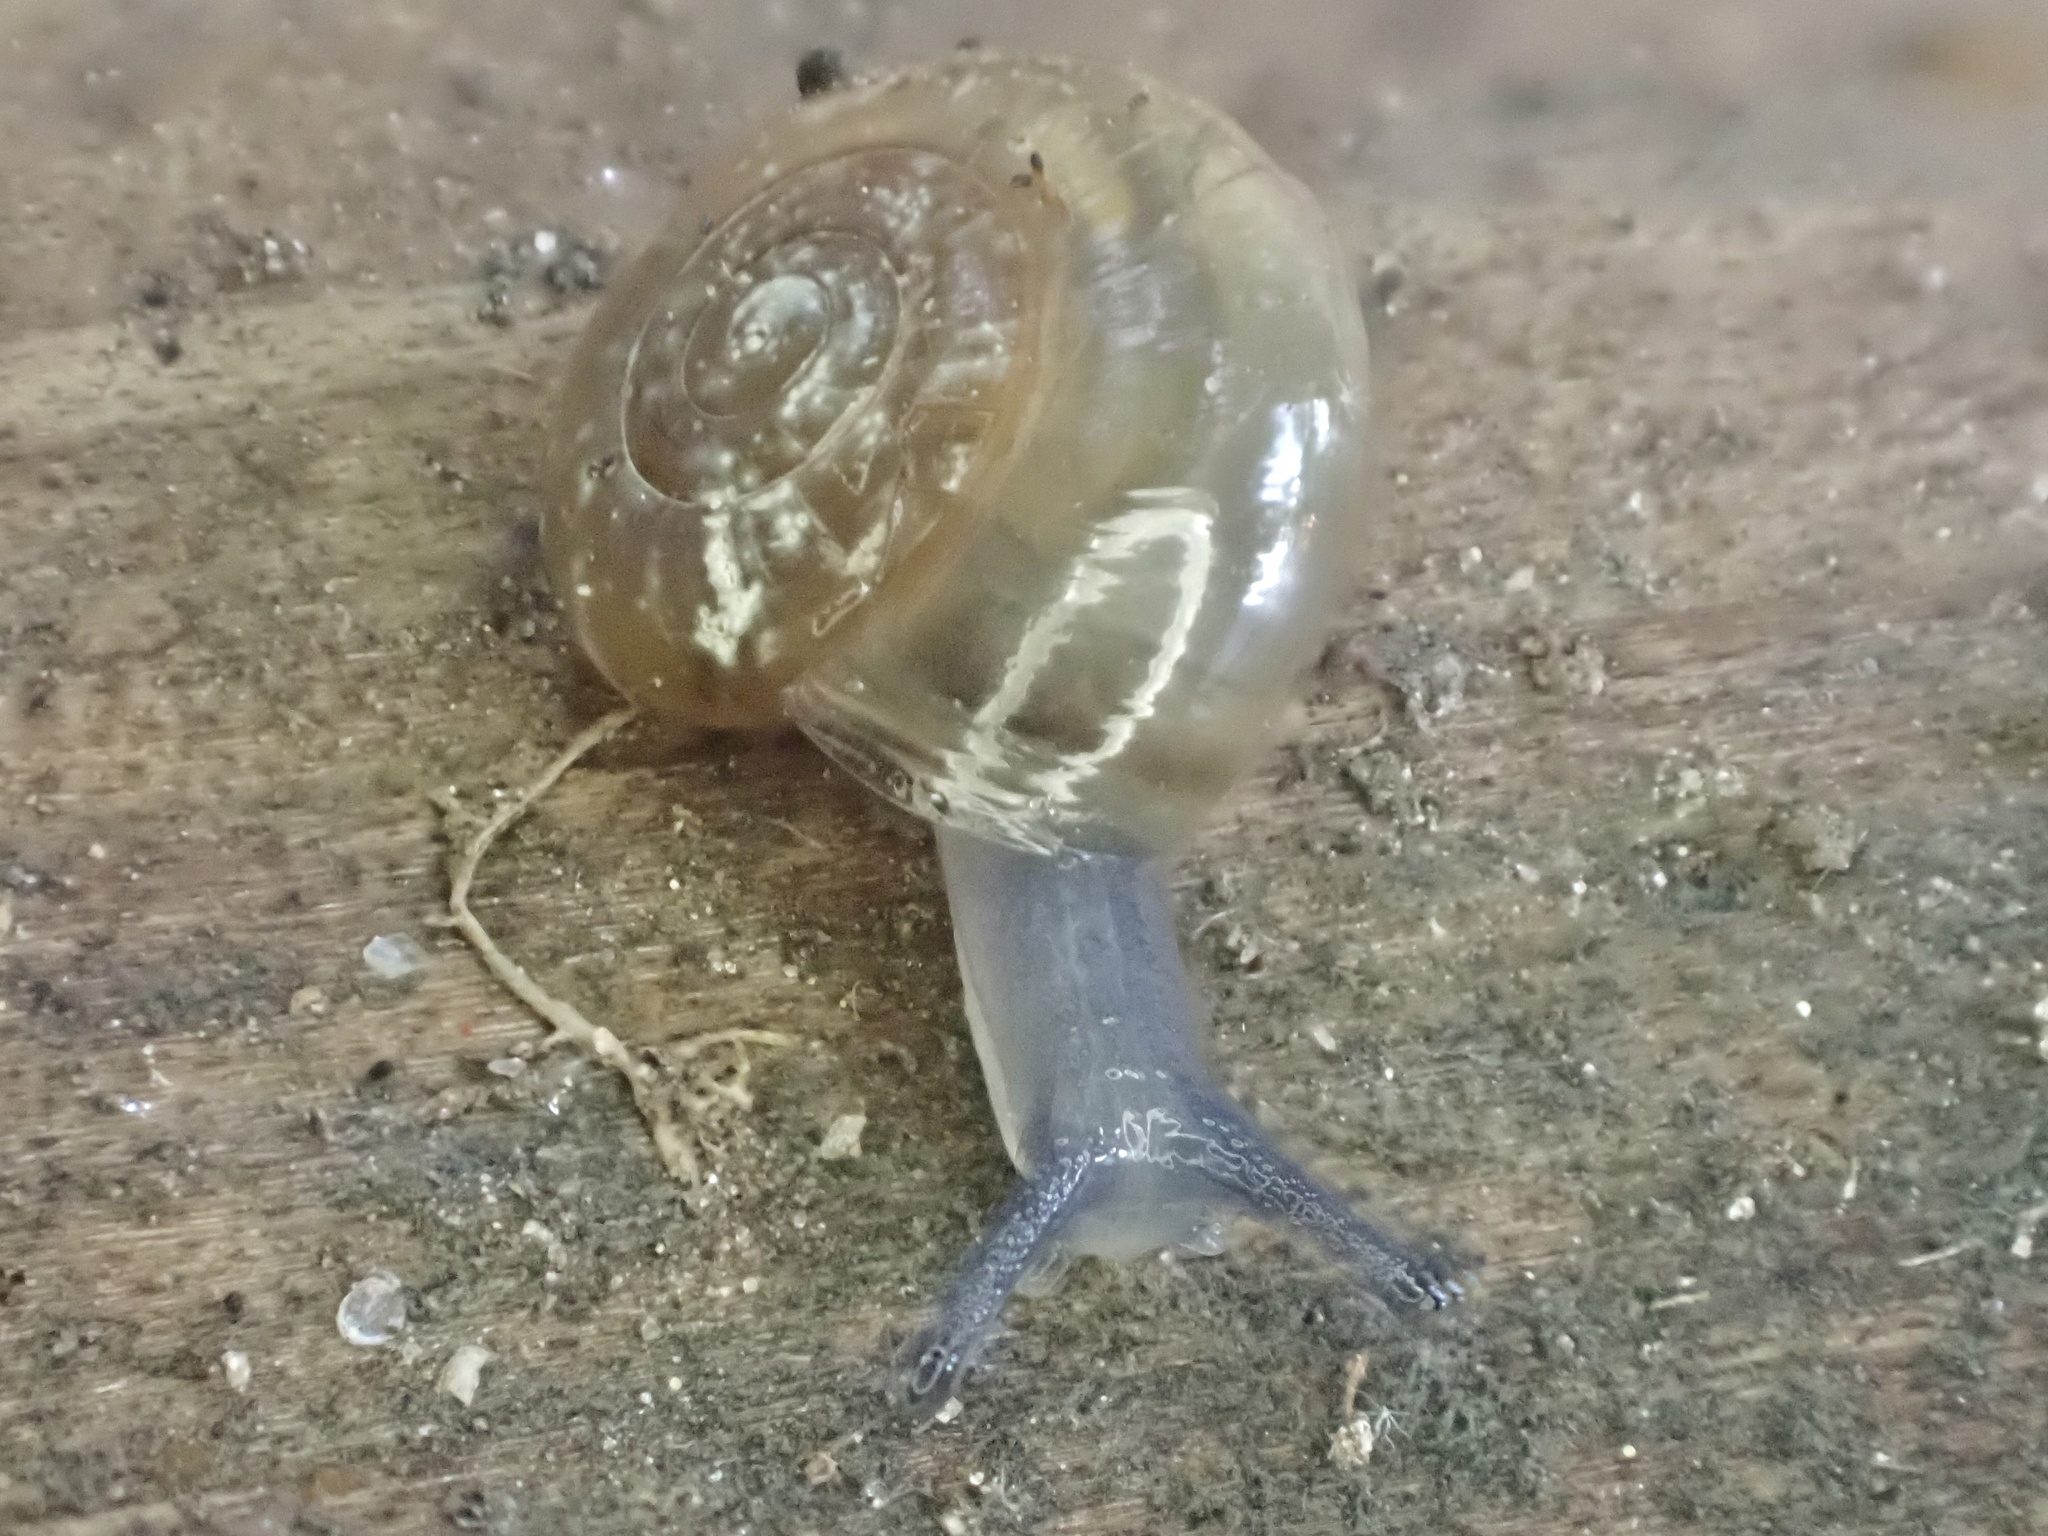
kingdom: Animalia
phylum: Mollusca
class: Gastropoda
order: Stylommatophora
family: Oxychilidae
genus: Oxychilus
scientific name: Oxychilus draparnaudi
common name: Draparnaud's glass snail
